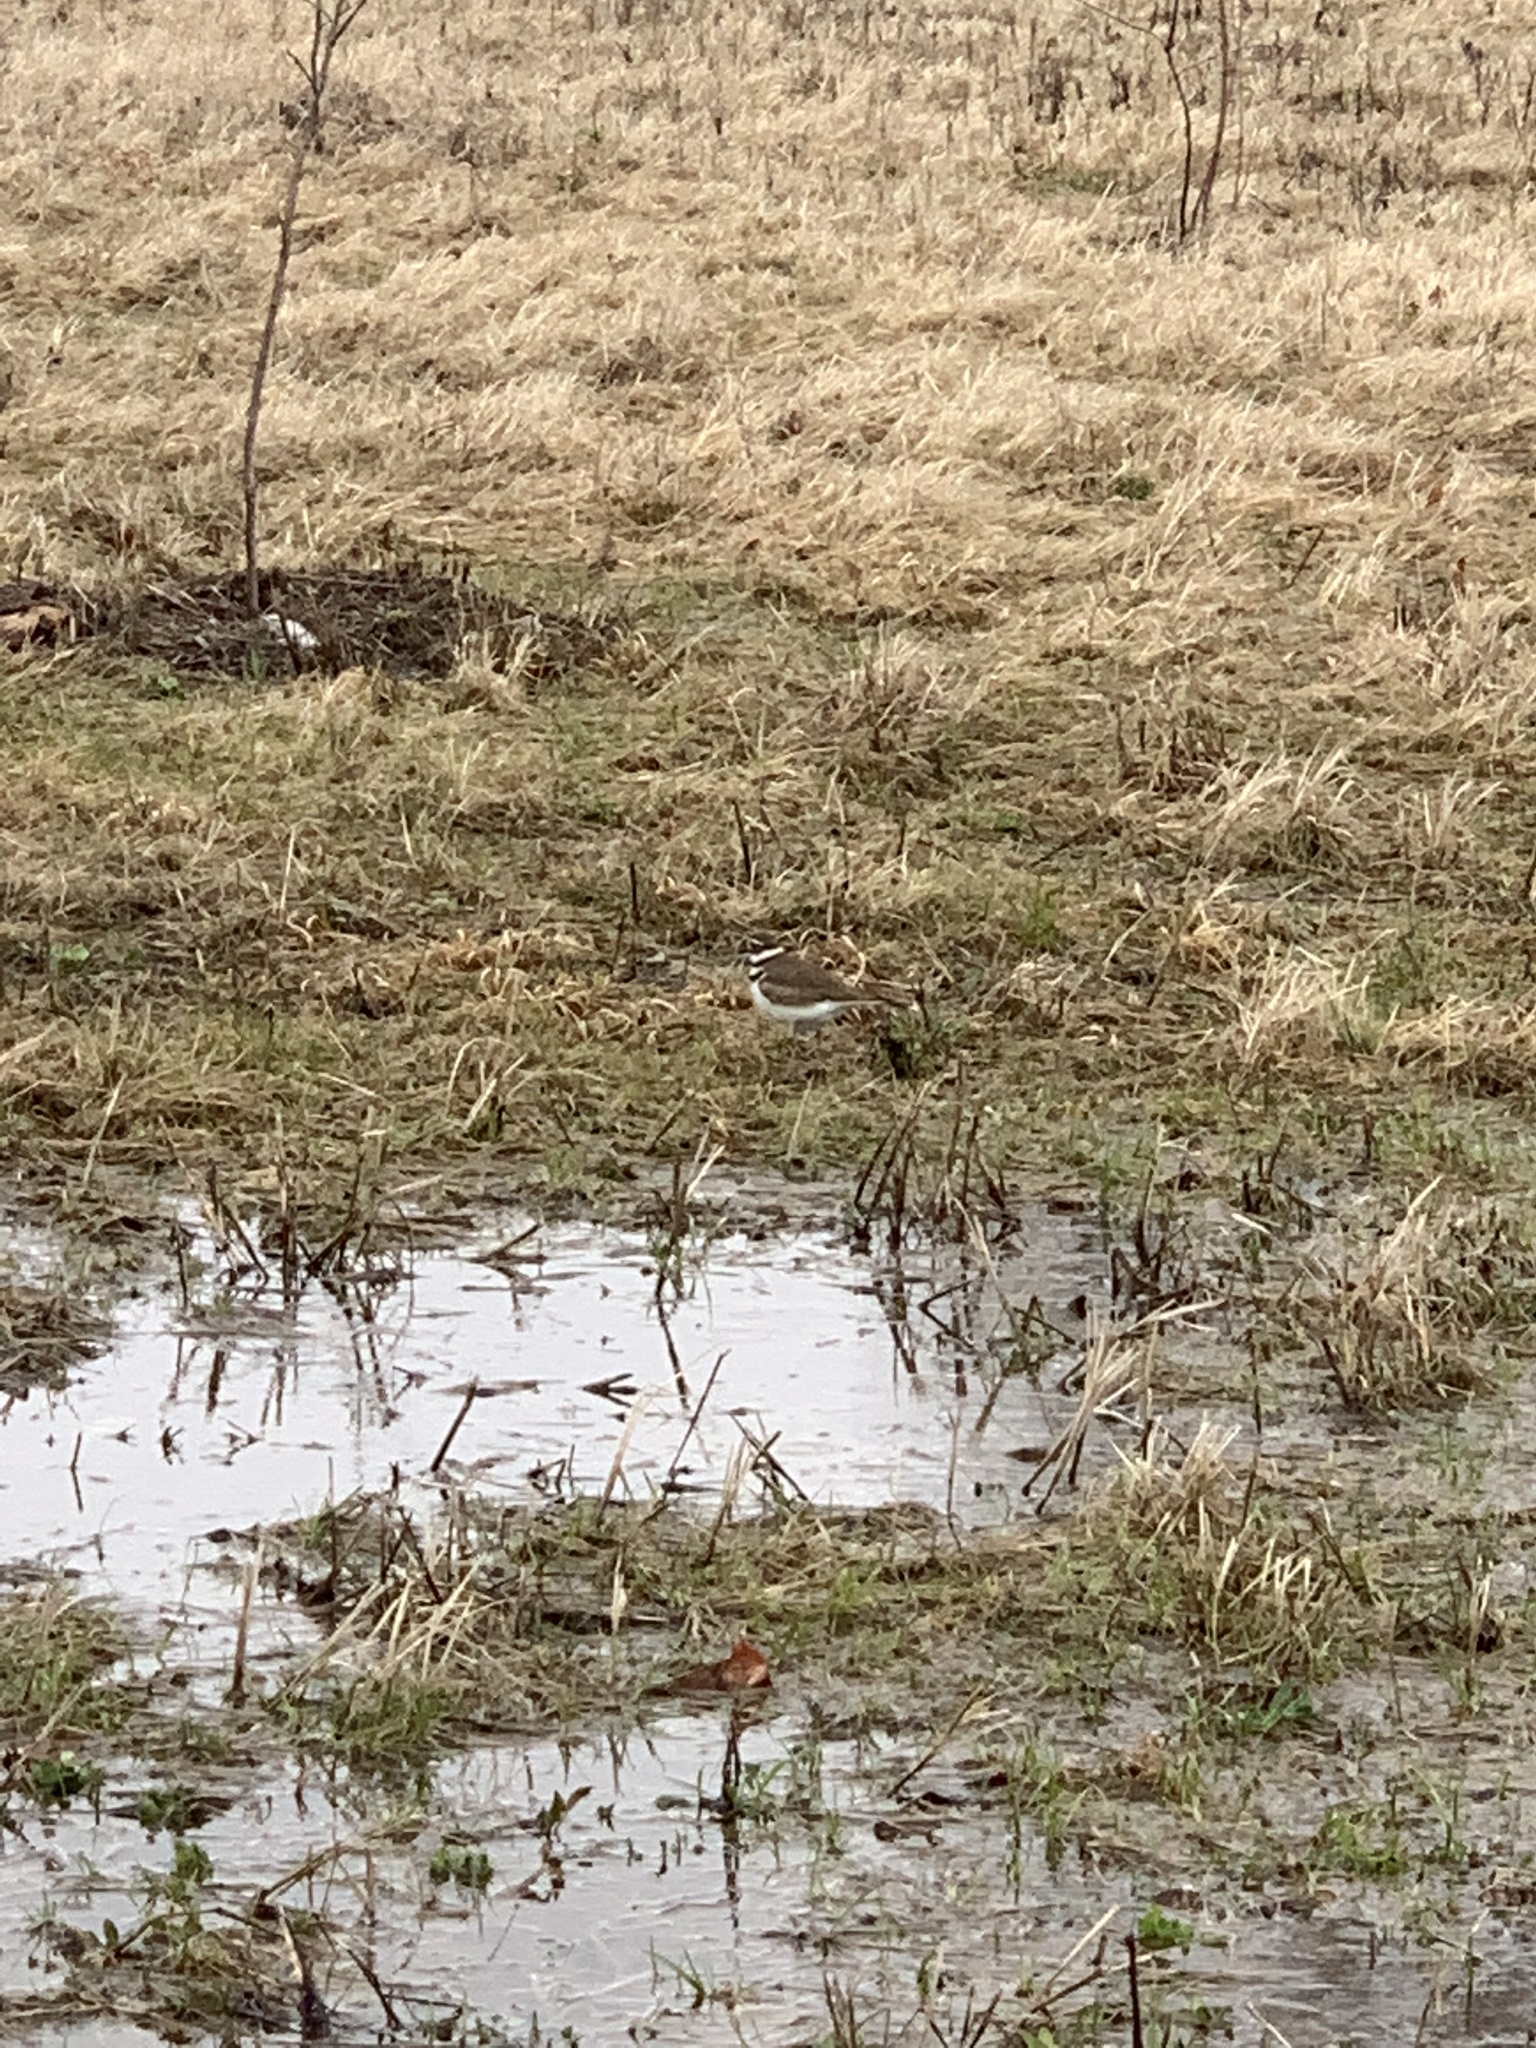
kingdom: Animalia
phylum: Chordata
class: Aves
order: Charadriiformes
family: Charadriidae
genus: Charadrius
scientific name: Charadrius vociferus
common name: Killdeer
